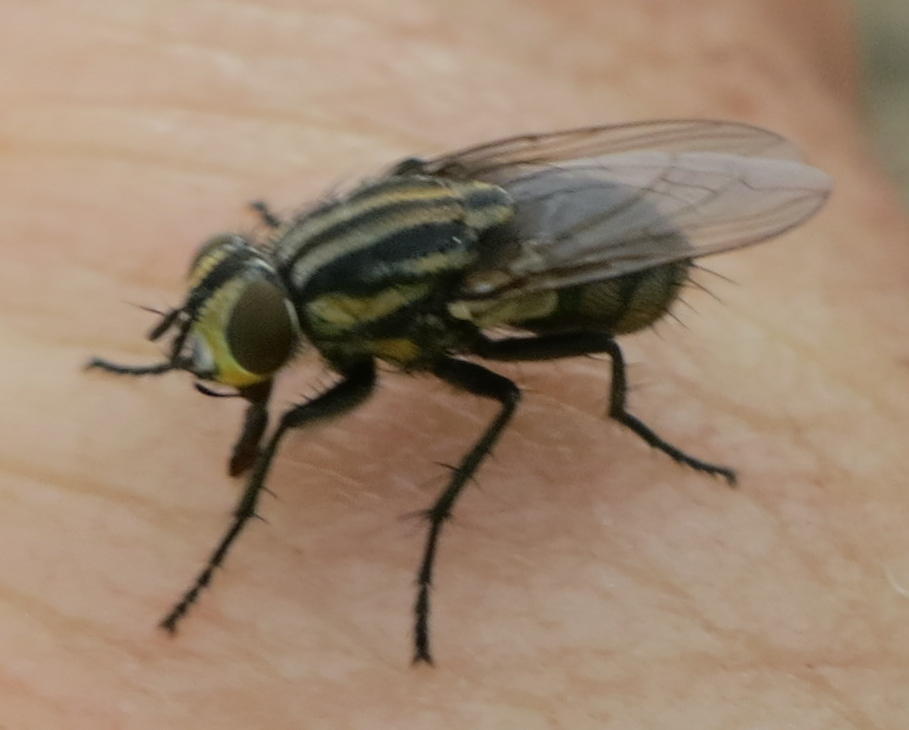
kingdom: Animalia
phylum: Arthropoda
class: Insecta
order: Diptera
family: Sarcophagidae
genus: Oxysarcodexia
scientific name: Oxysarcodexia varia
